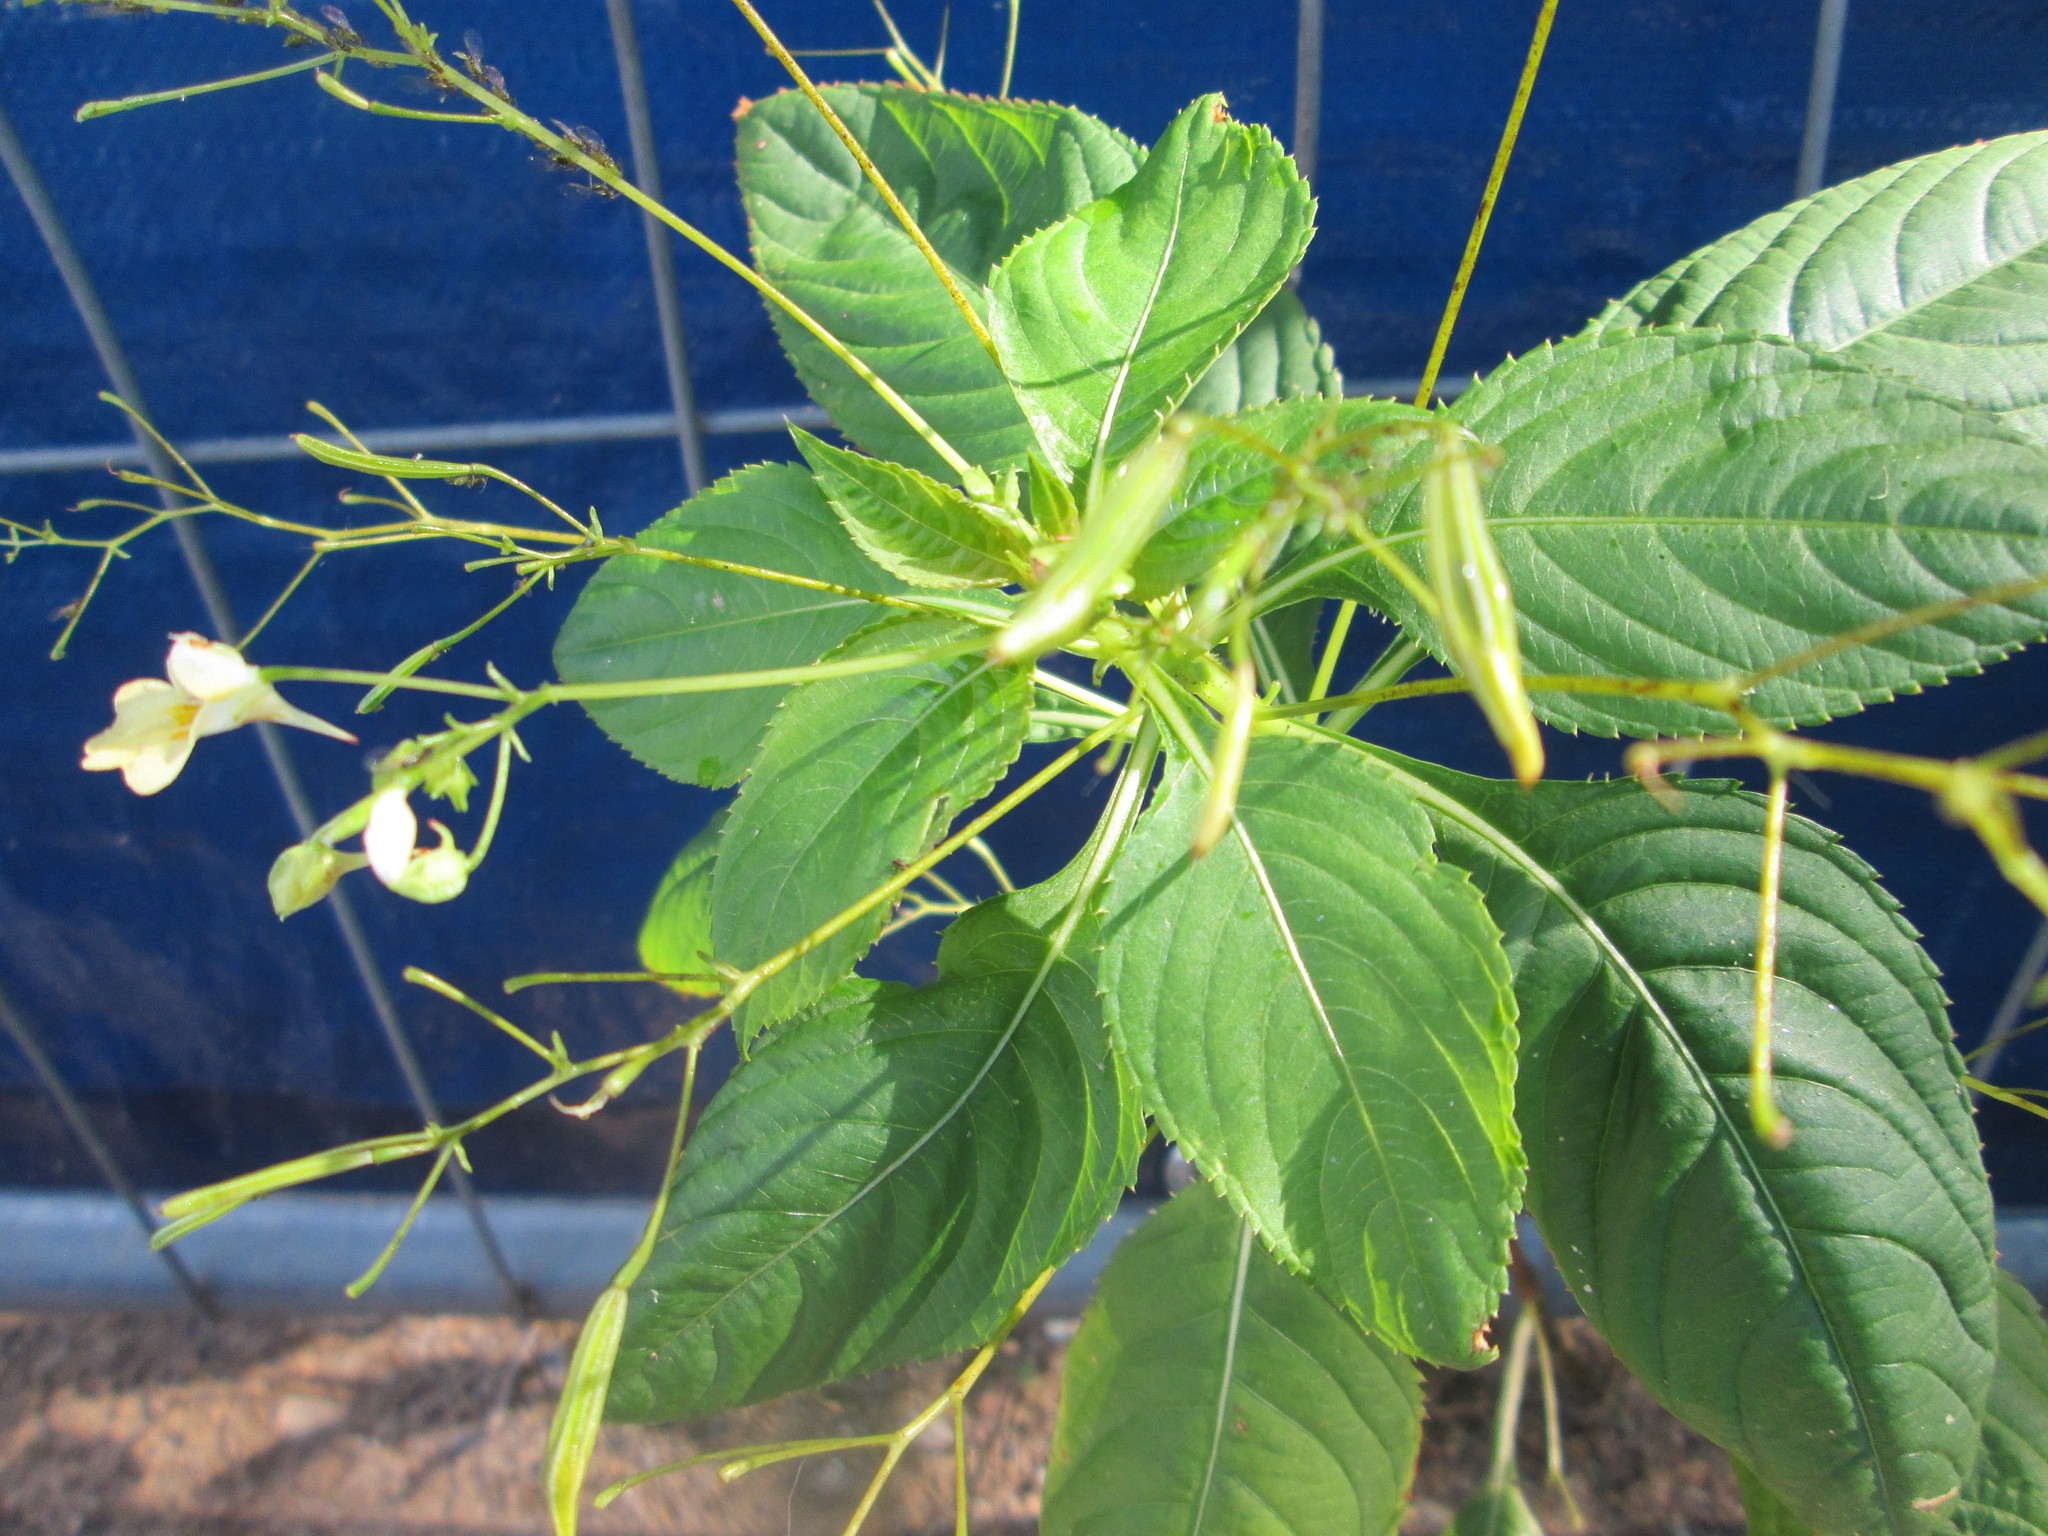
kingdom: Plantae
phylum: Tracheophyta
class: Magnoliopsida
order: Ericales
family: Balsaminaceae
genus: Impatiens
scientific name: Impatiens parviflora
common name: Small balsam
